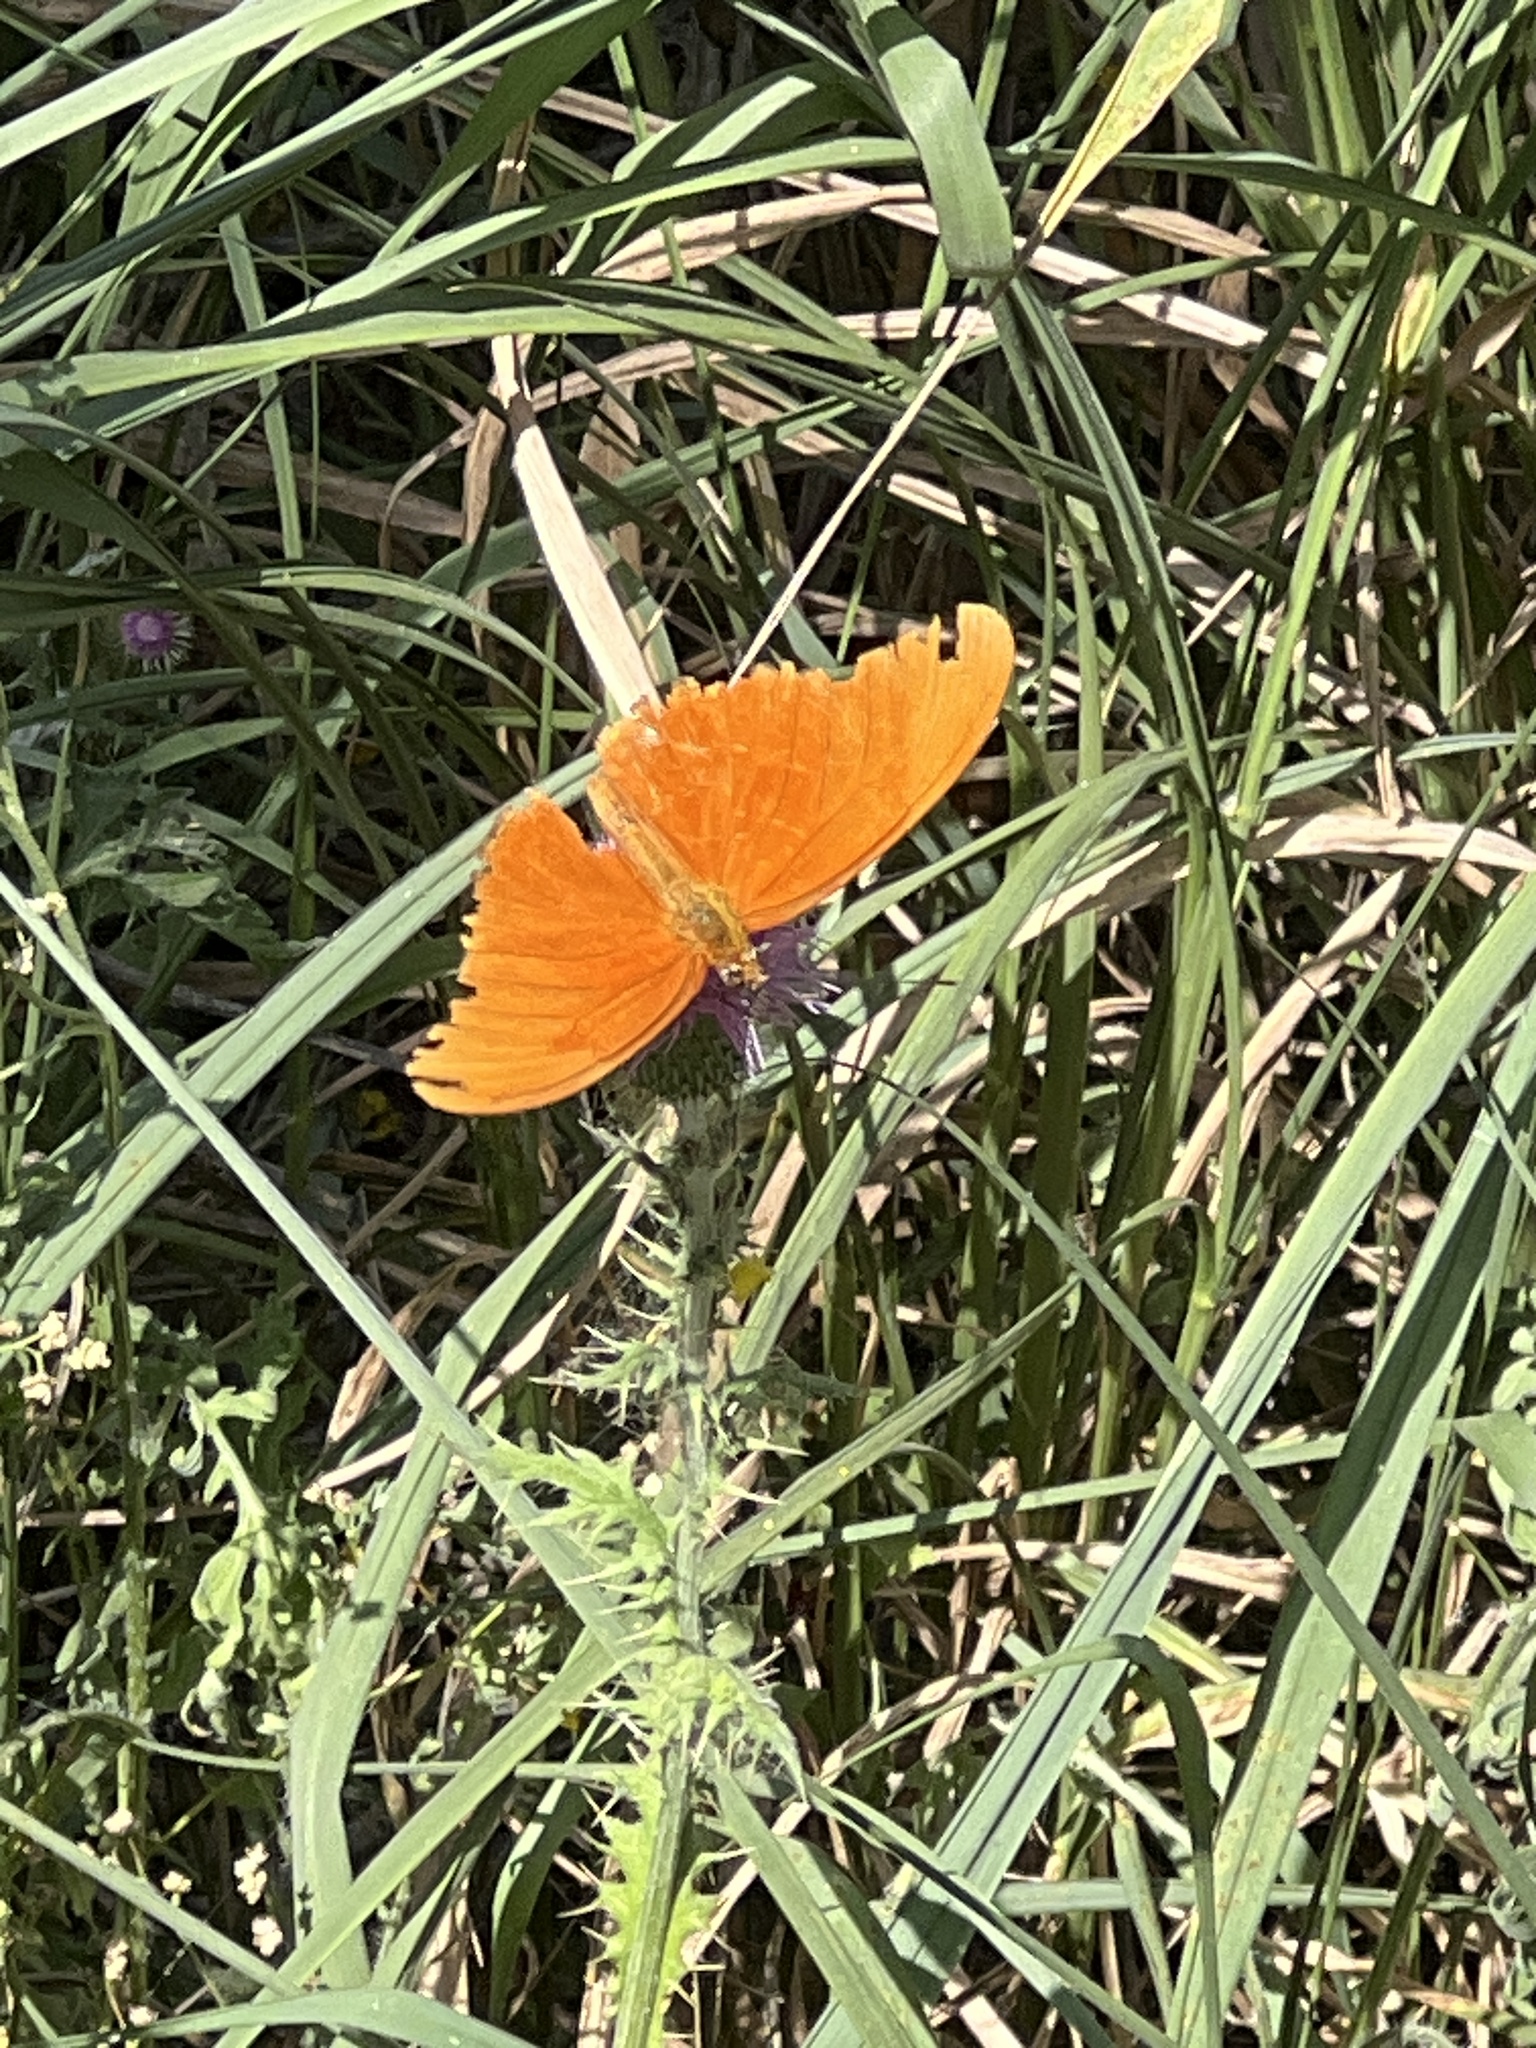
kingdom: Animalia
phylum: Arthropoda
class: Insecta
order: Lepidoptera
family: Nymphalidae
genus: Dryas
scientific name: Dryas iulia
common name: Flambeau
